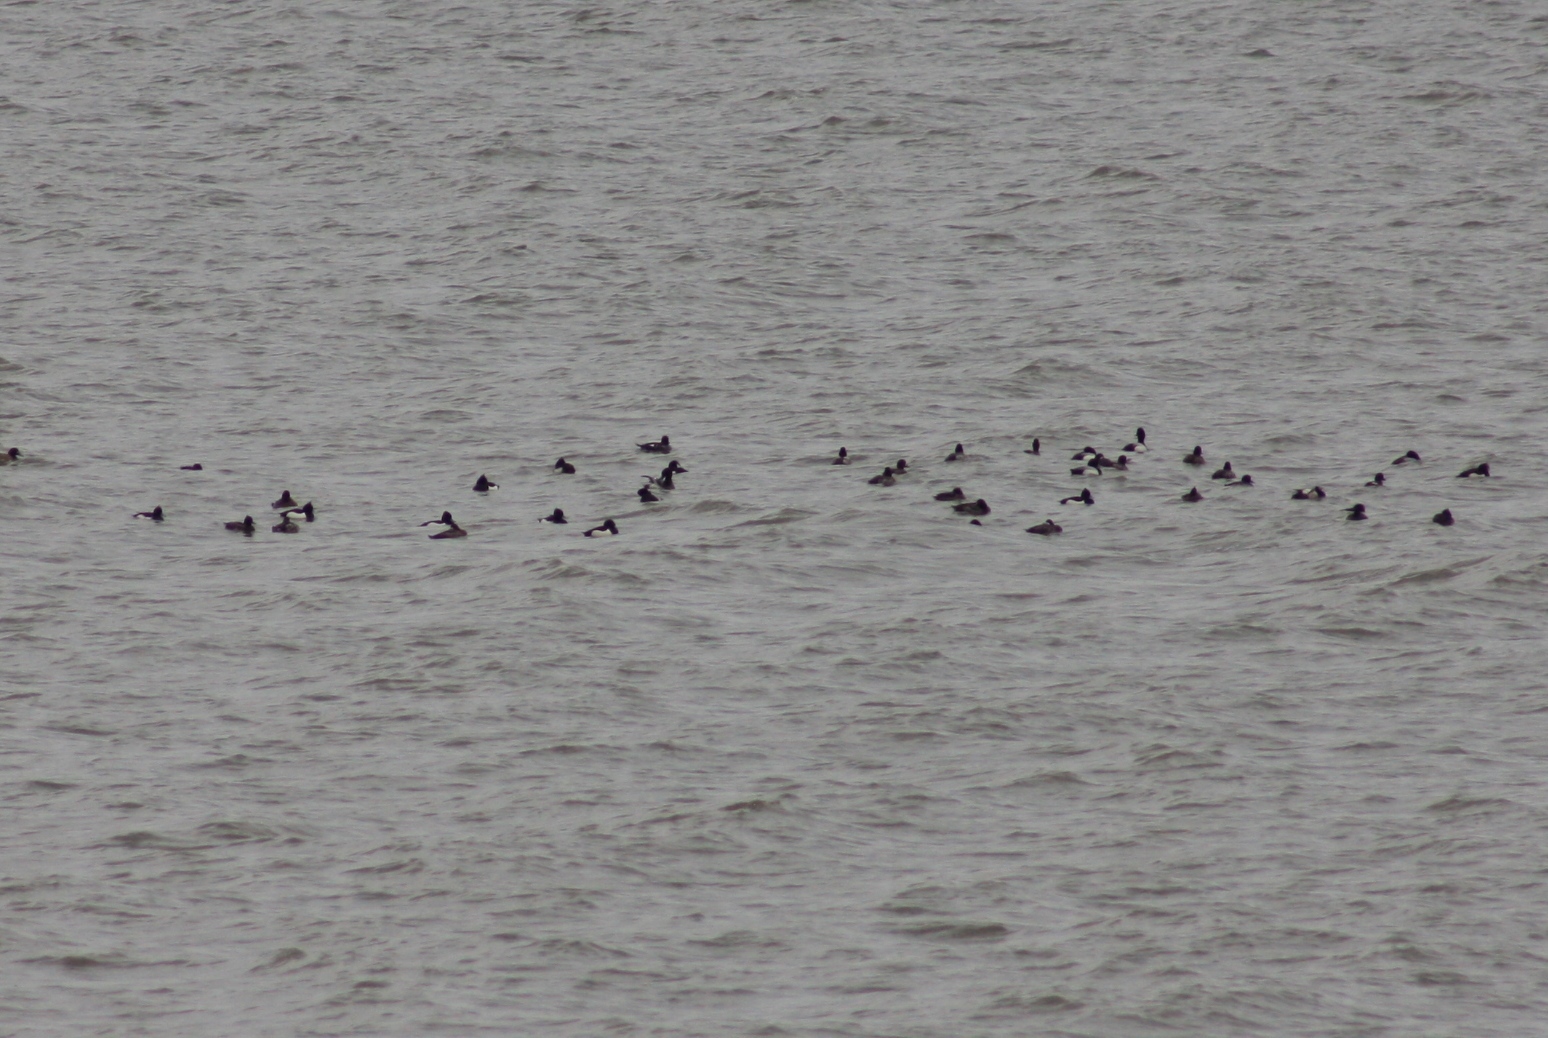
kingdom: Animalia
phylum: Chordata
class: Aves
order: Anseriformes
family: Anatidae
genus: Bucephala
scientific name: Bucephala clangula
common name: Common goldeneye
